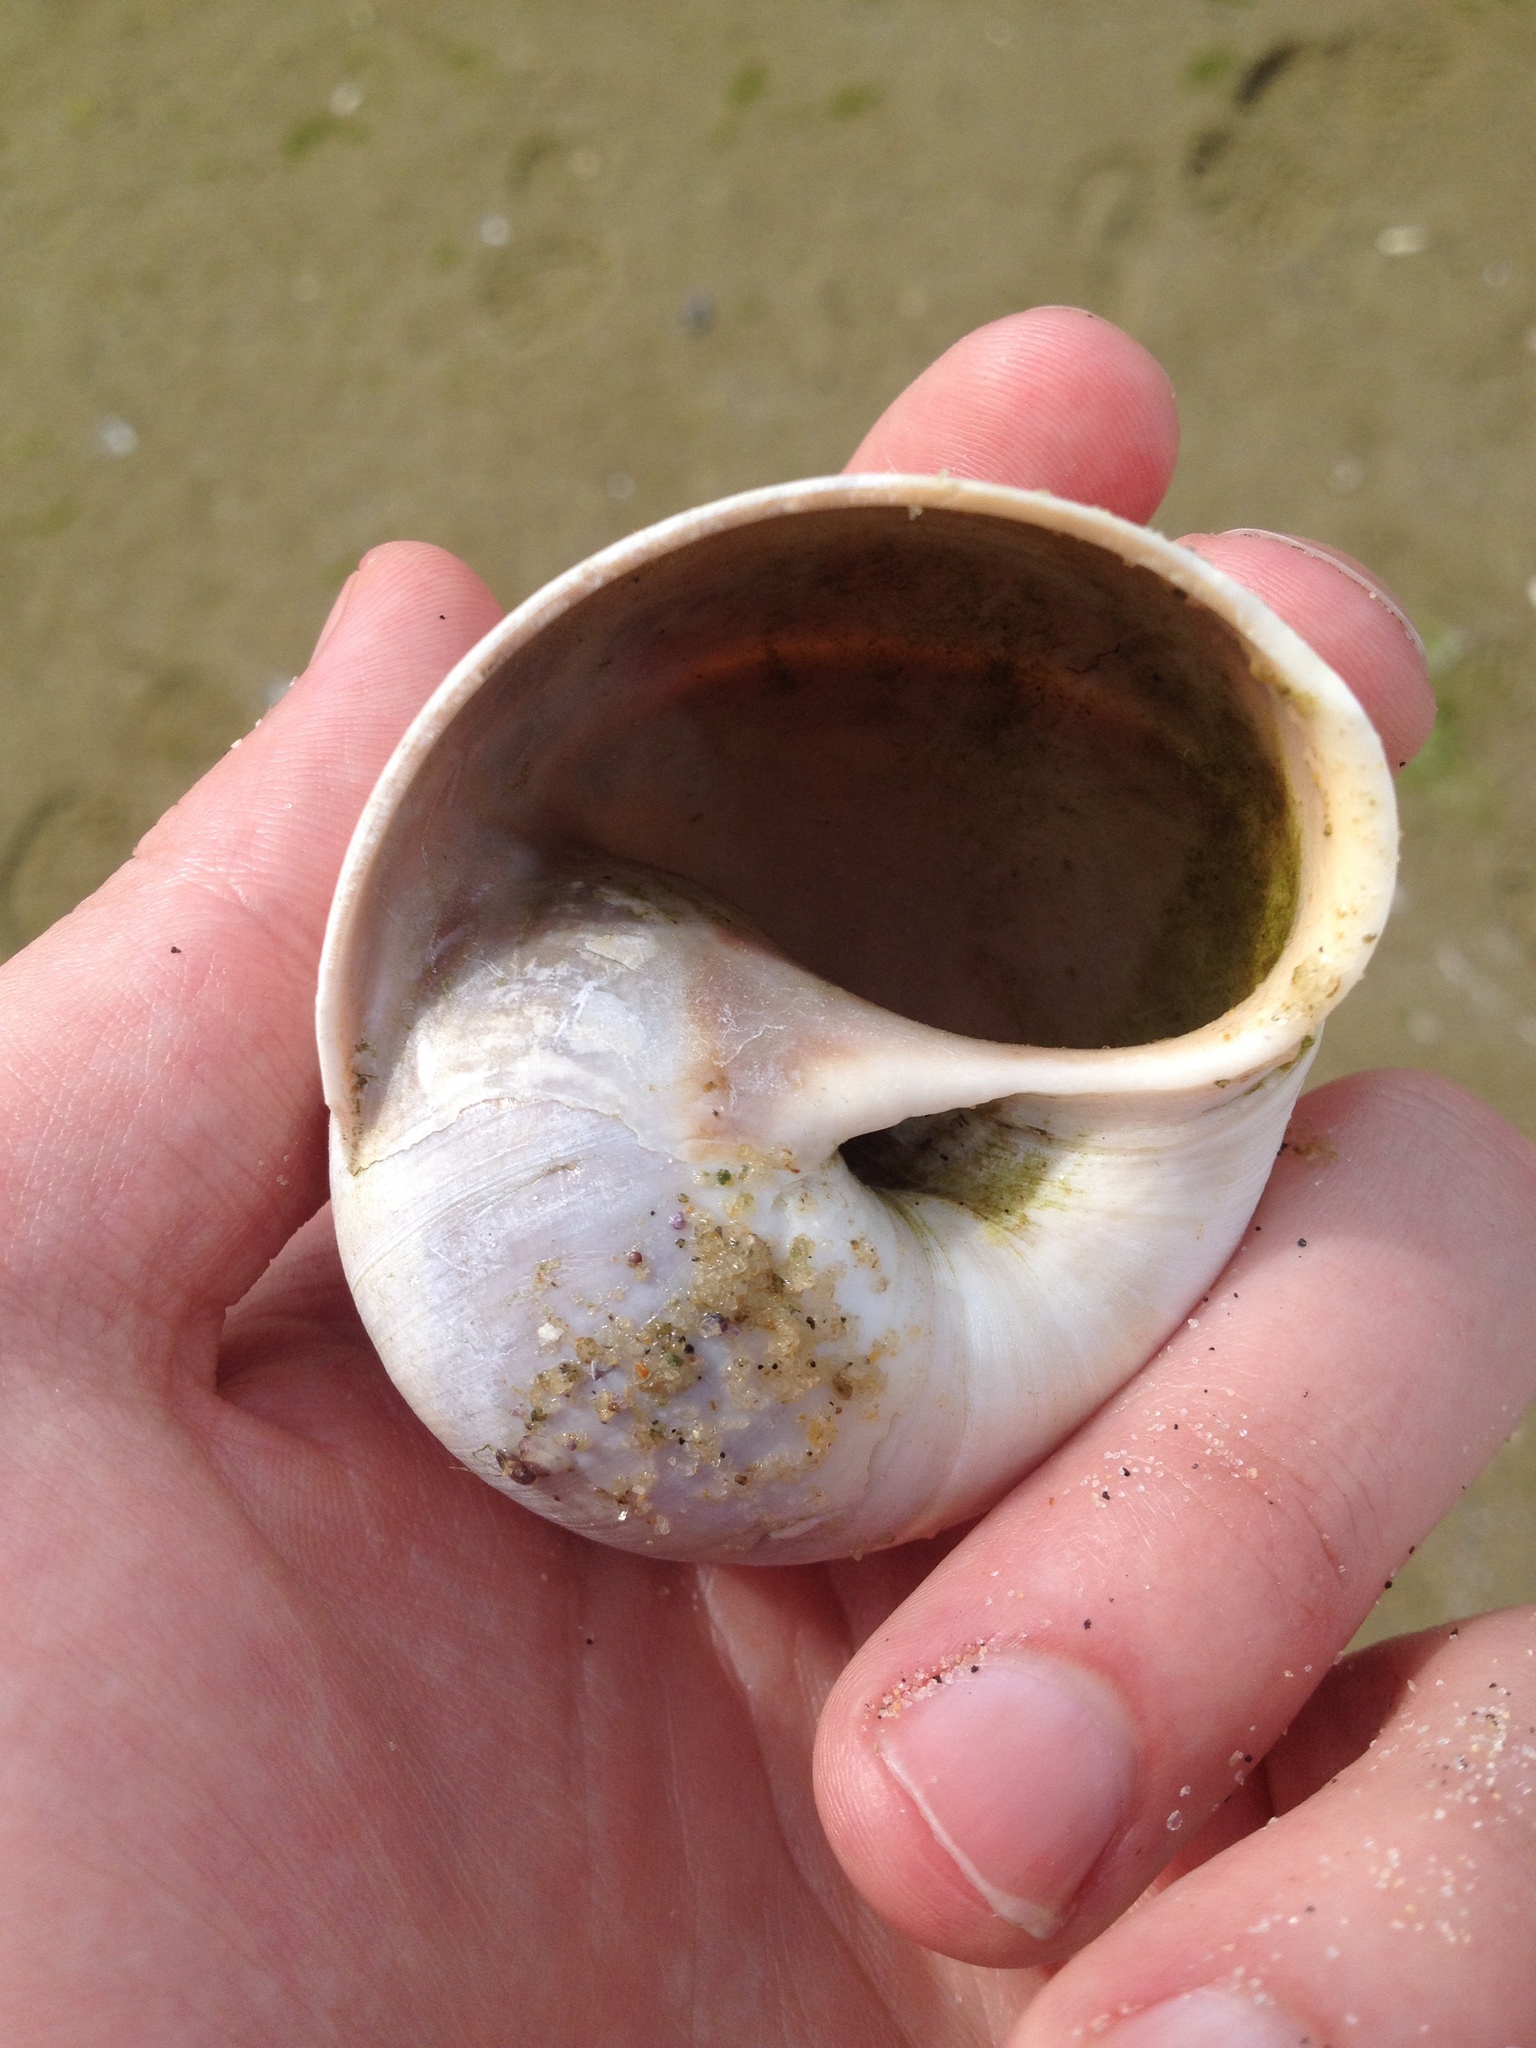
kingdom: Animalia
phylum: Mollusca
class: Gastropoda
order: Littorinimorpha
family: Naticidae
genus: Euspira
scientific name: Euspira heros
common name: Common northern moonsnail
